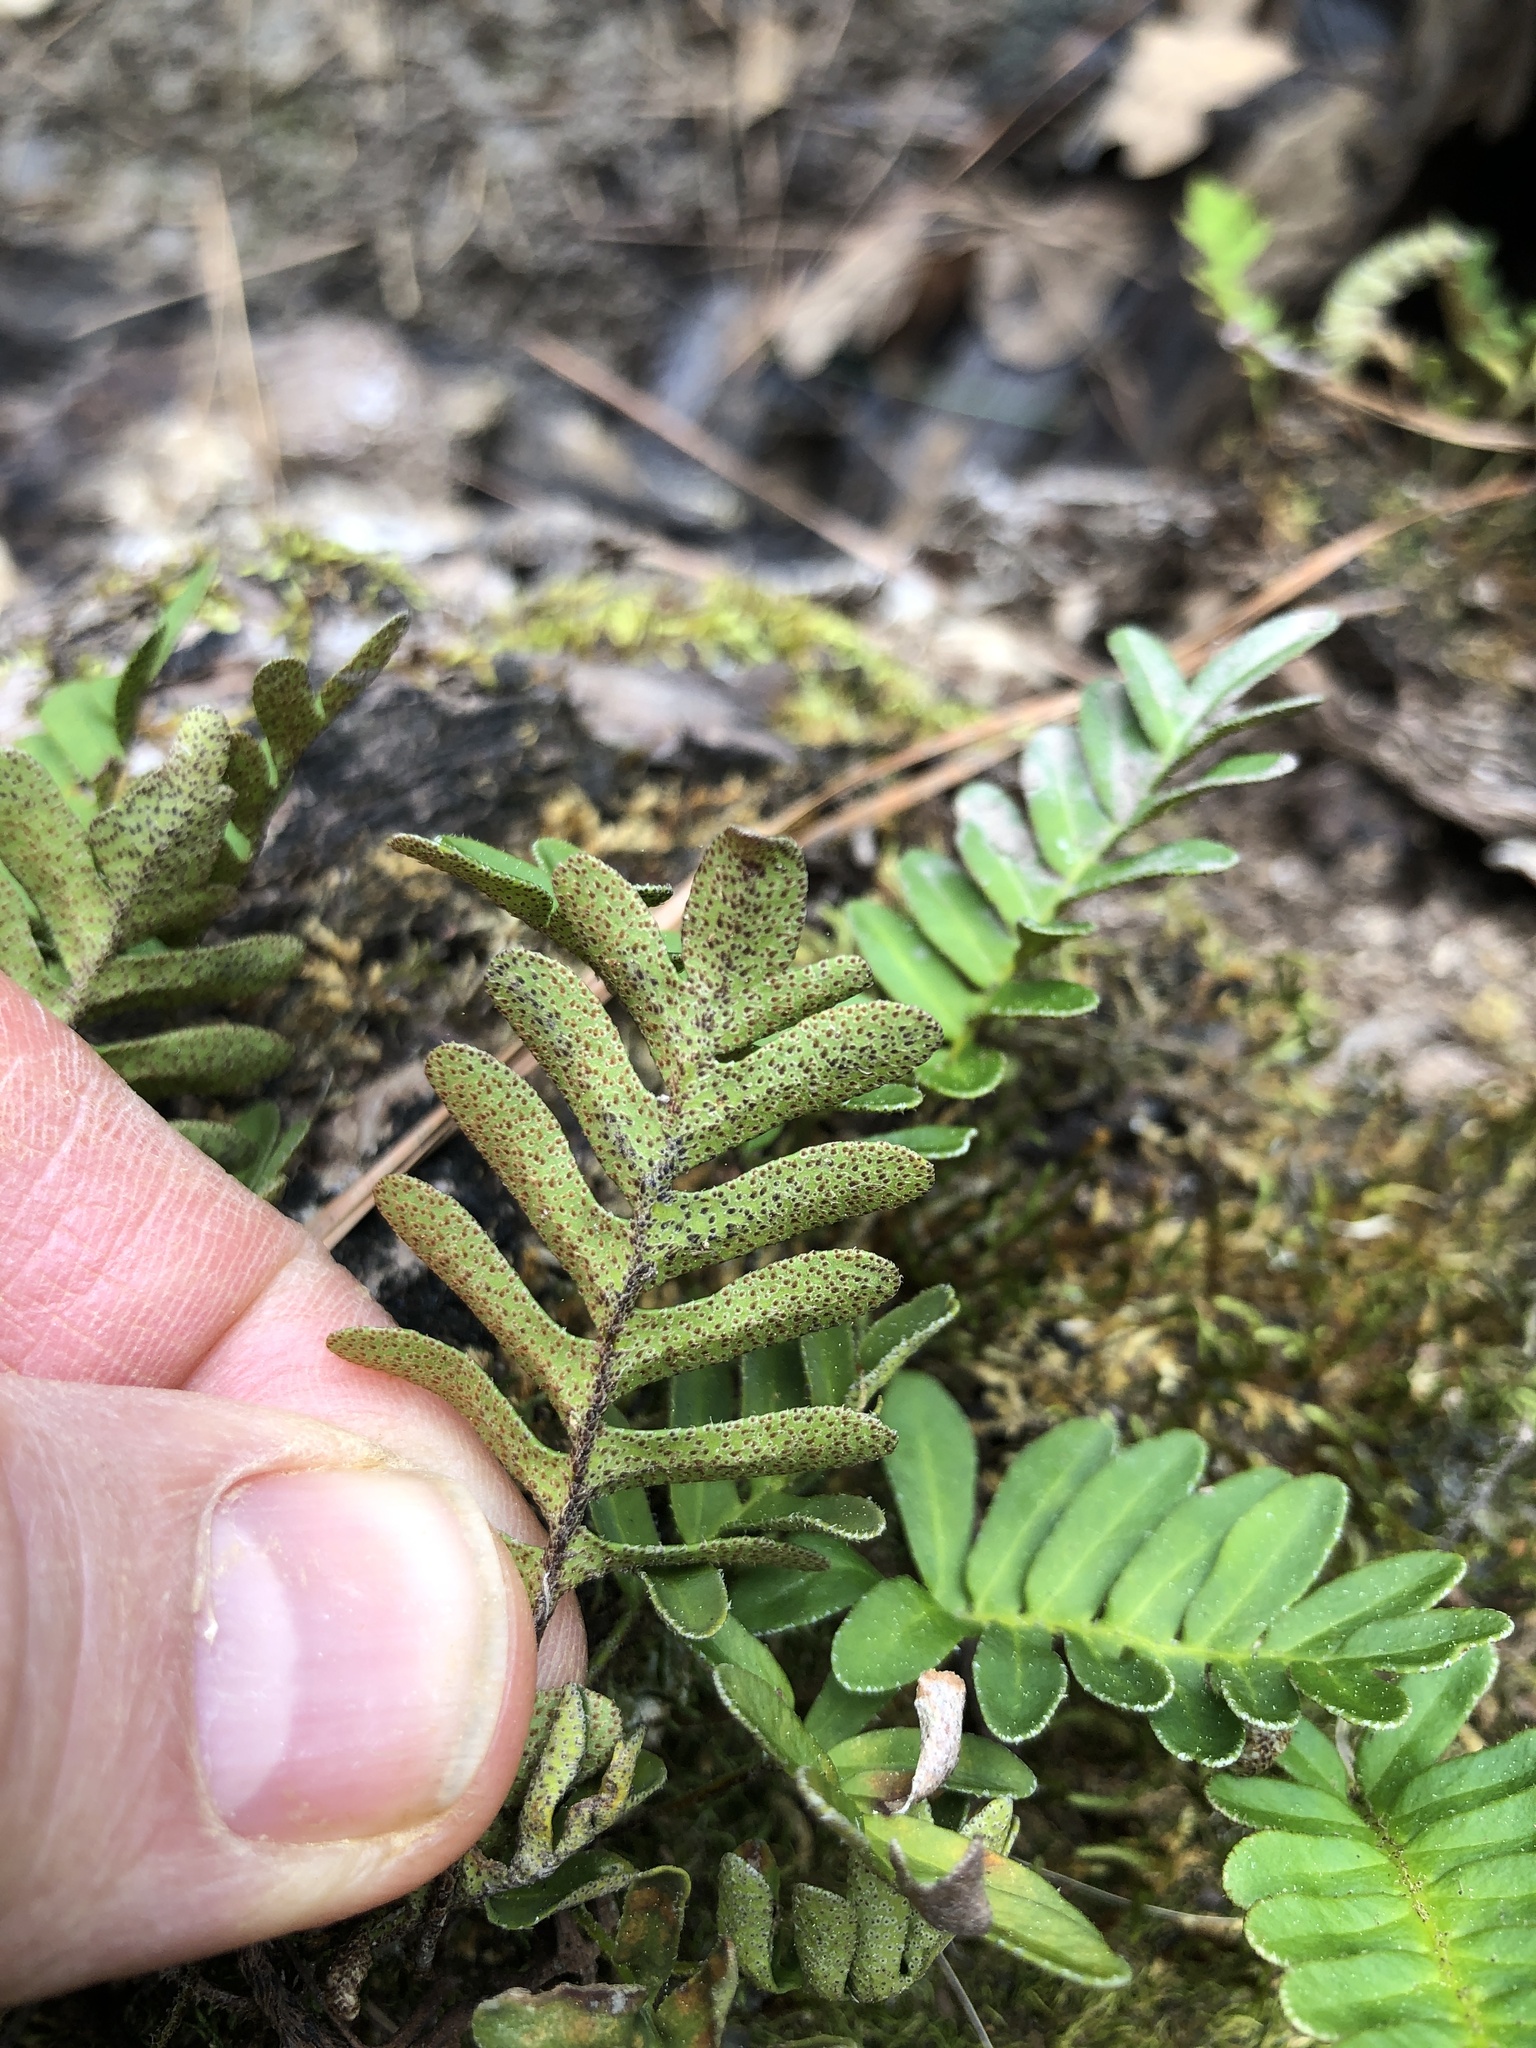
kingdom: Plantae
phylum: Tracheophyta
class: Polypodiopsida
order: Polypodiales
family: Polypodiaceae
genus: Pleopeltis
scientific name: Pleopeltis michauxiana
